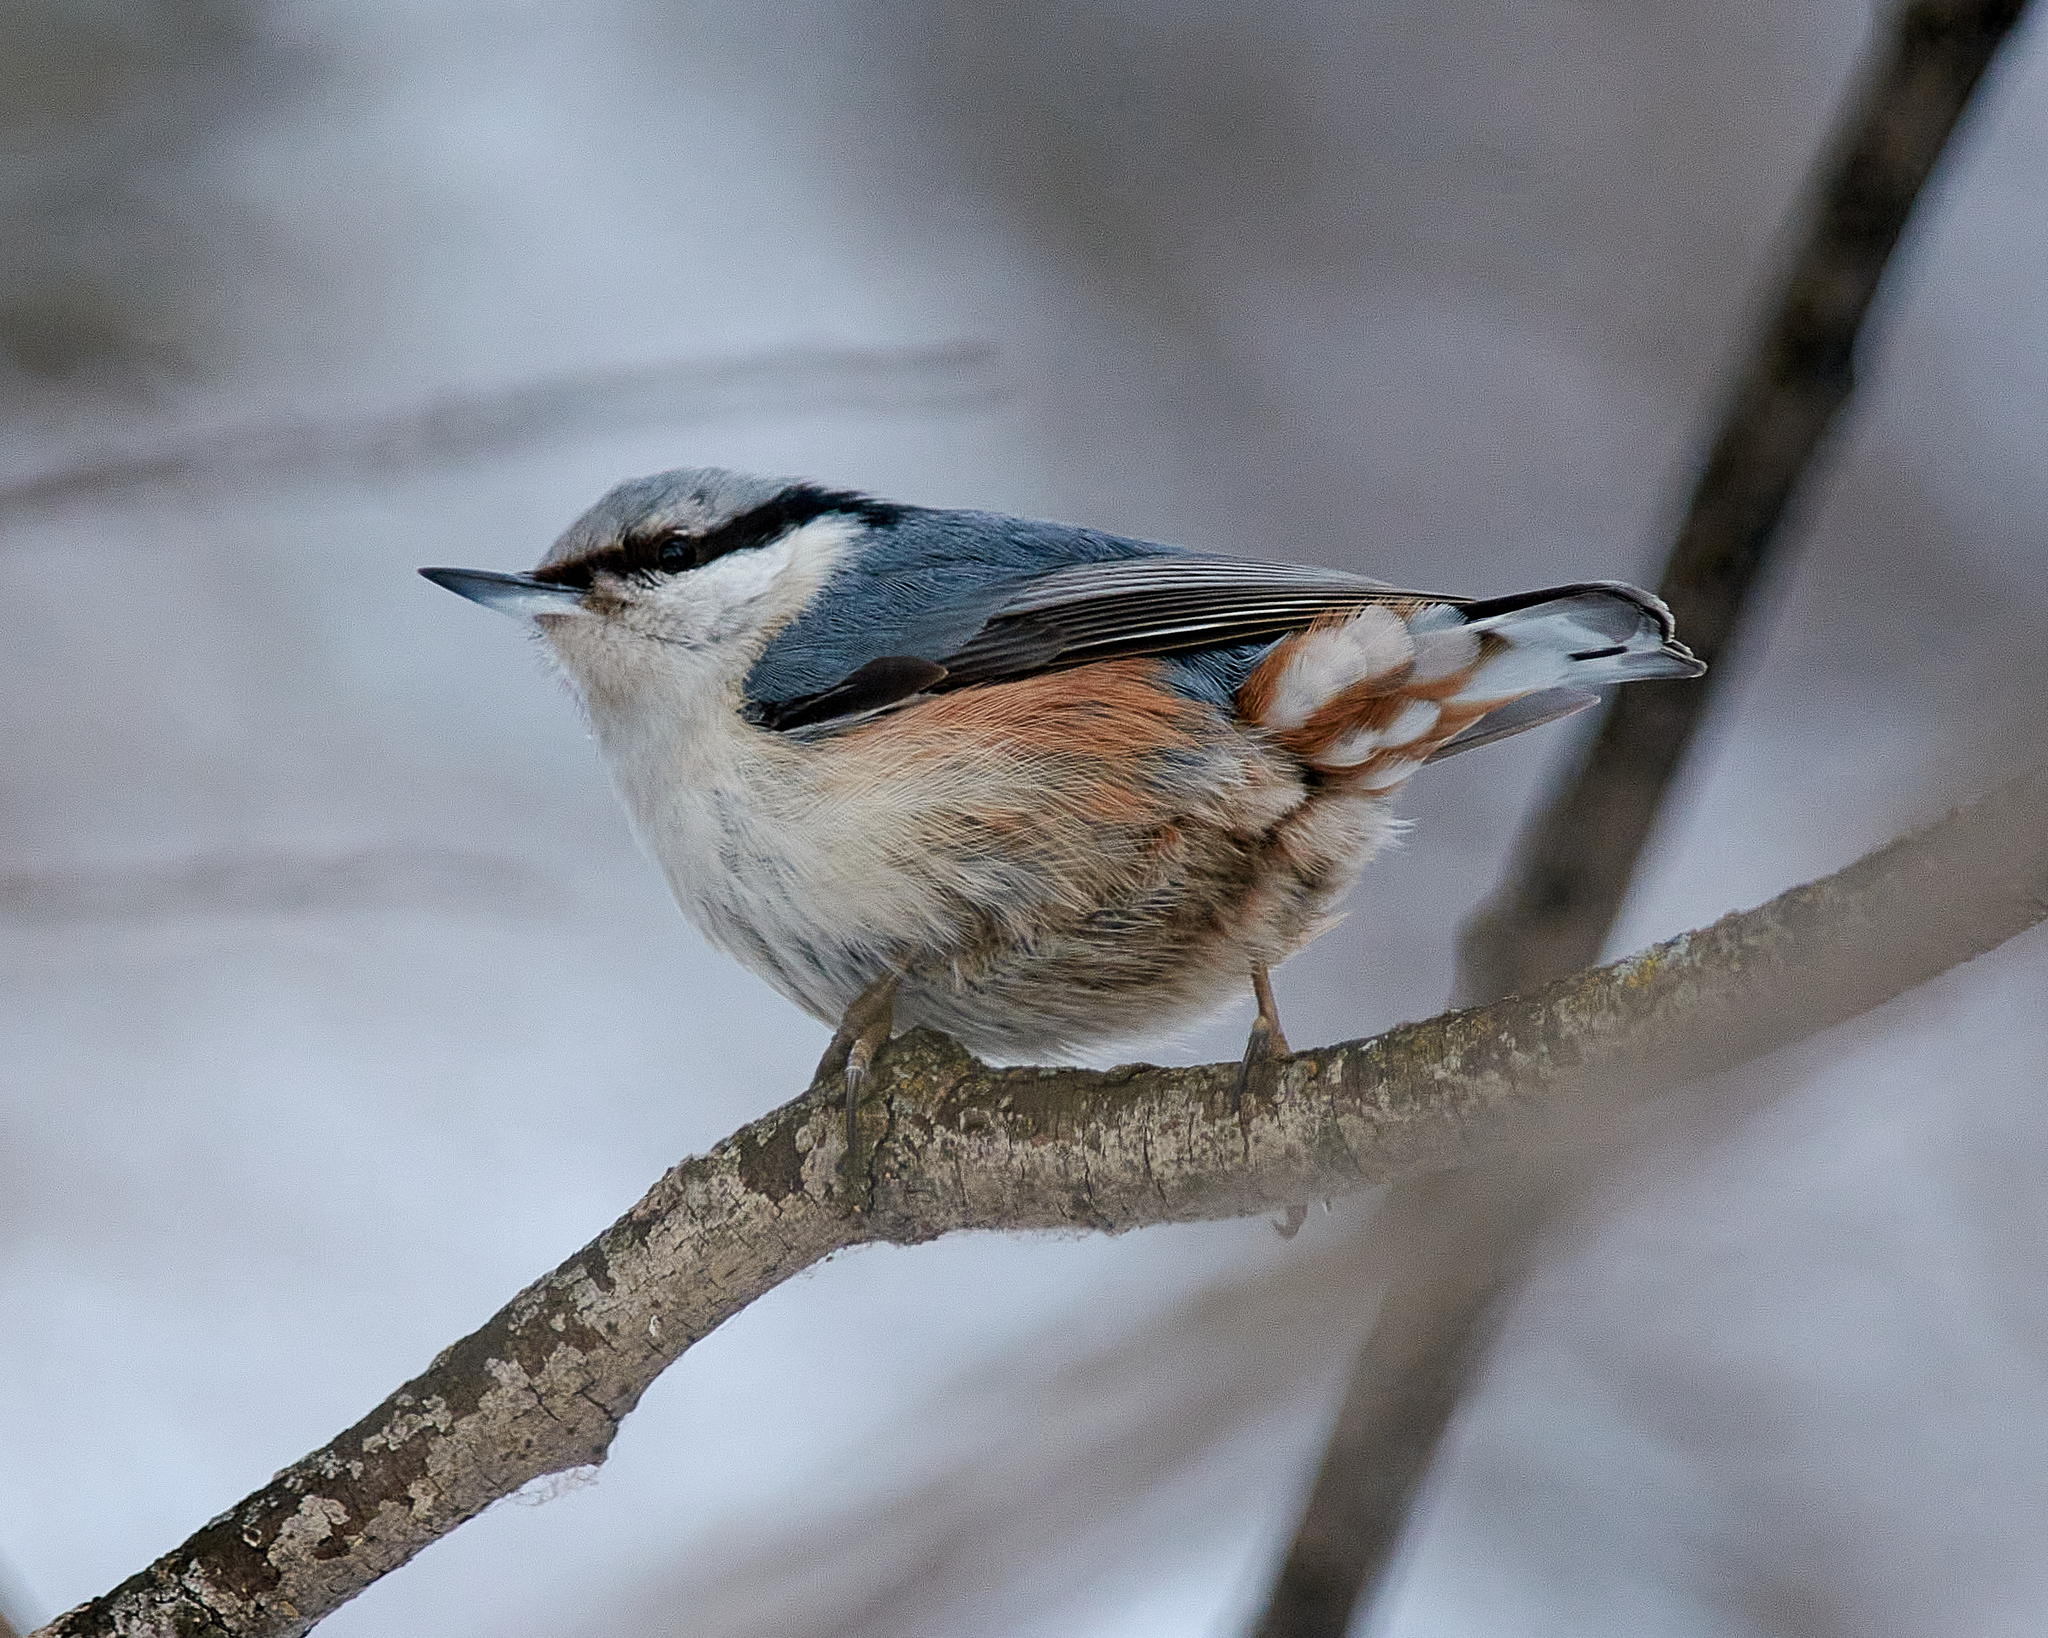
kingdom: Animalia
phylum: Chordata
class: Aves
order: Passeriformes
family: Sittidae
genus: Sitta
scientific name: Sitta europaea
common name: Eurasian nuthatch
